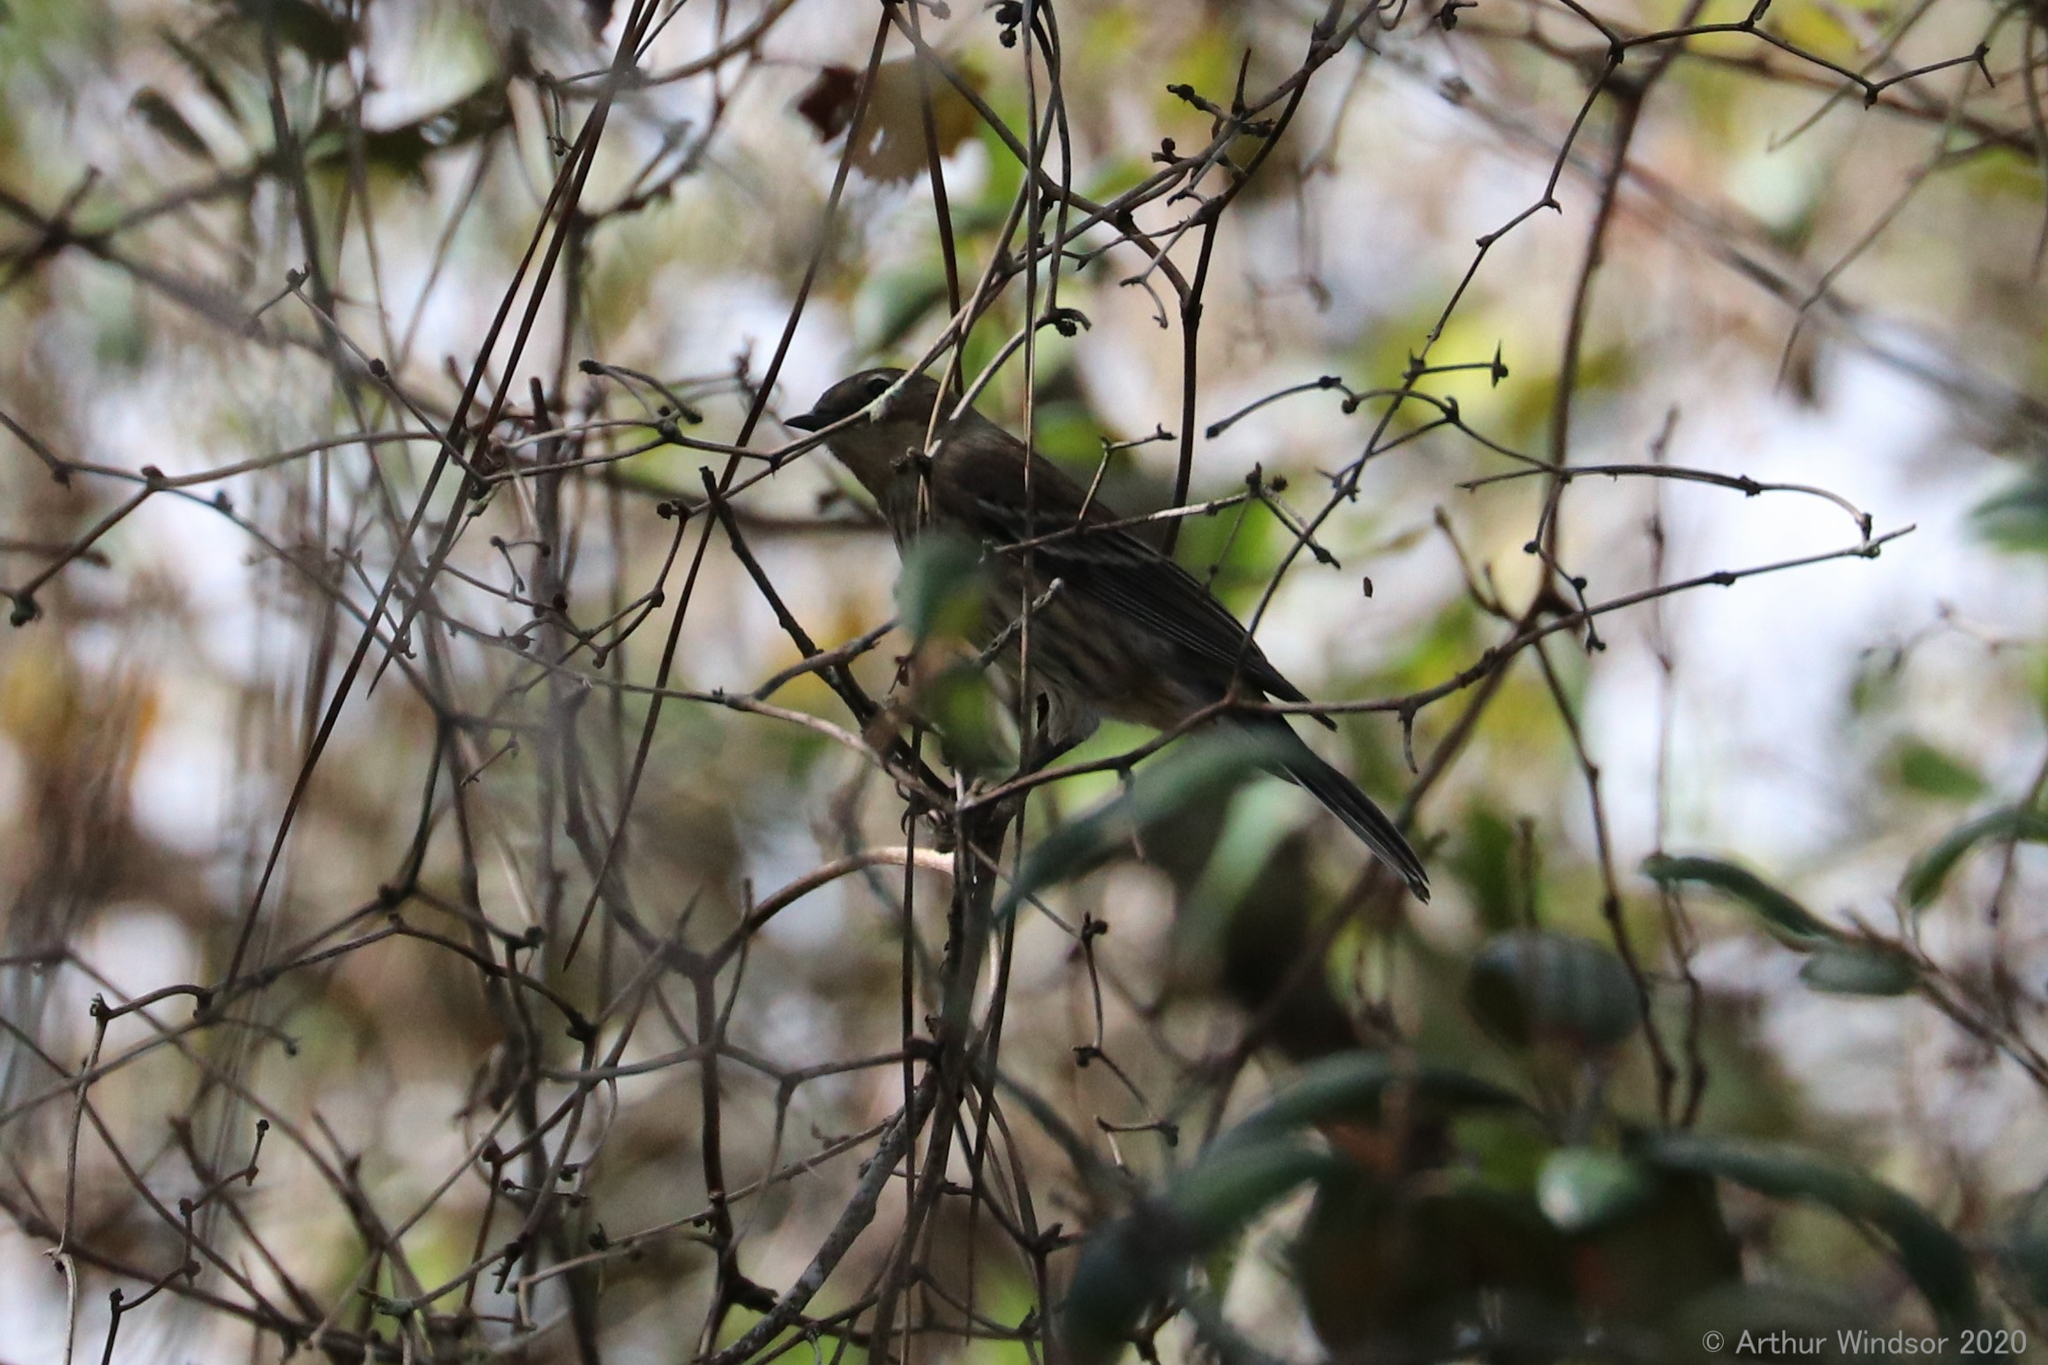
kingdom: Animalia
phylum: Chordata
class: Aves
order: Passeriformes
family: Parulidae
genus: Setophaga
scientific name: Setophaga coronata
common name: Myrtle warbler
